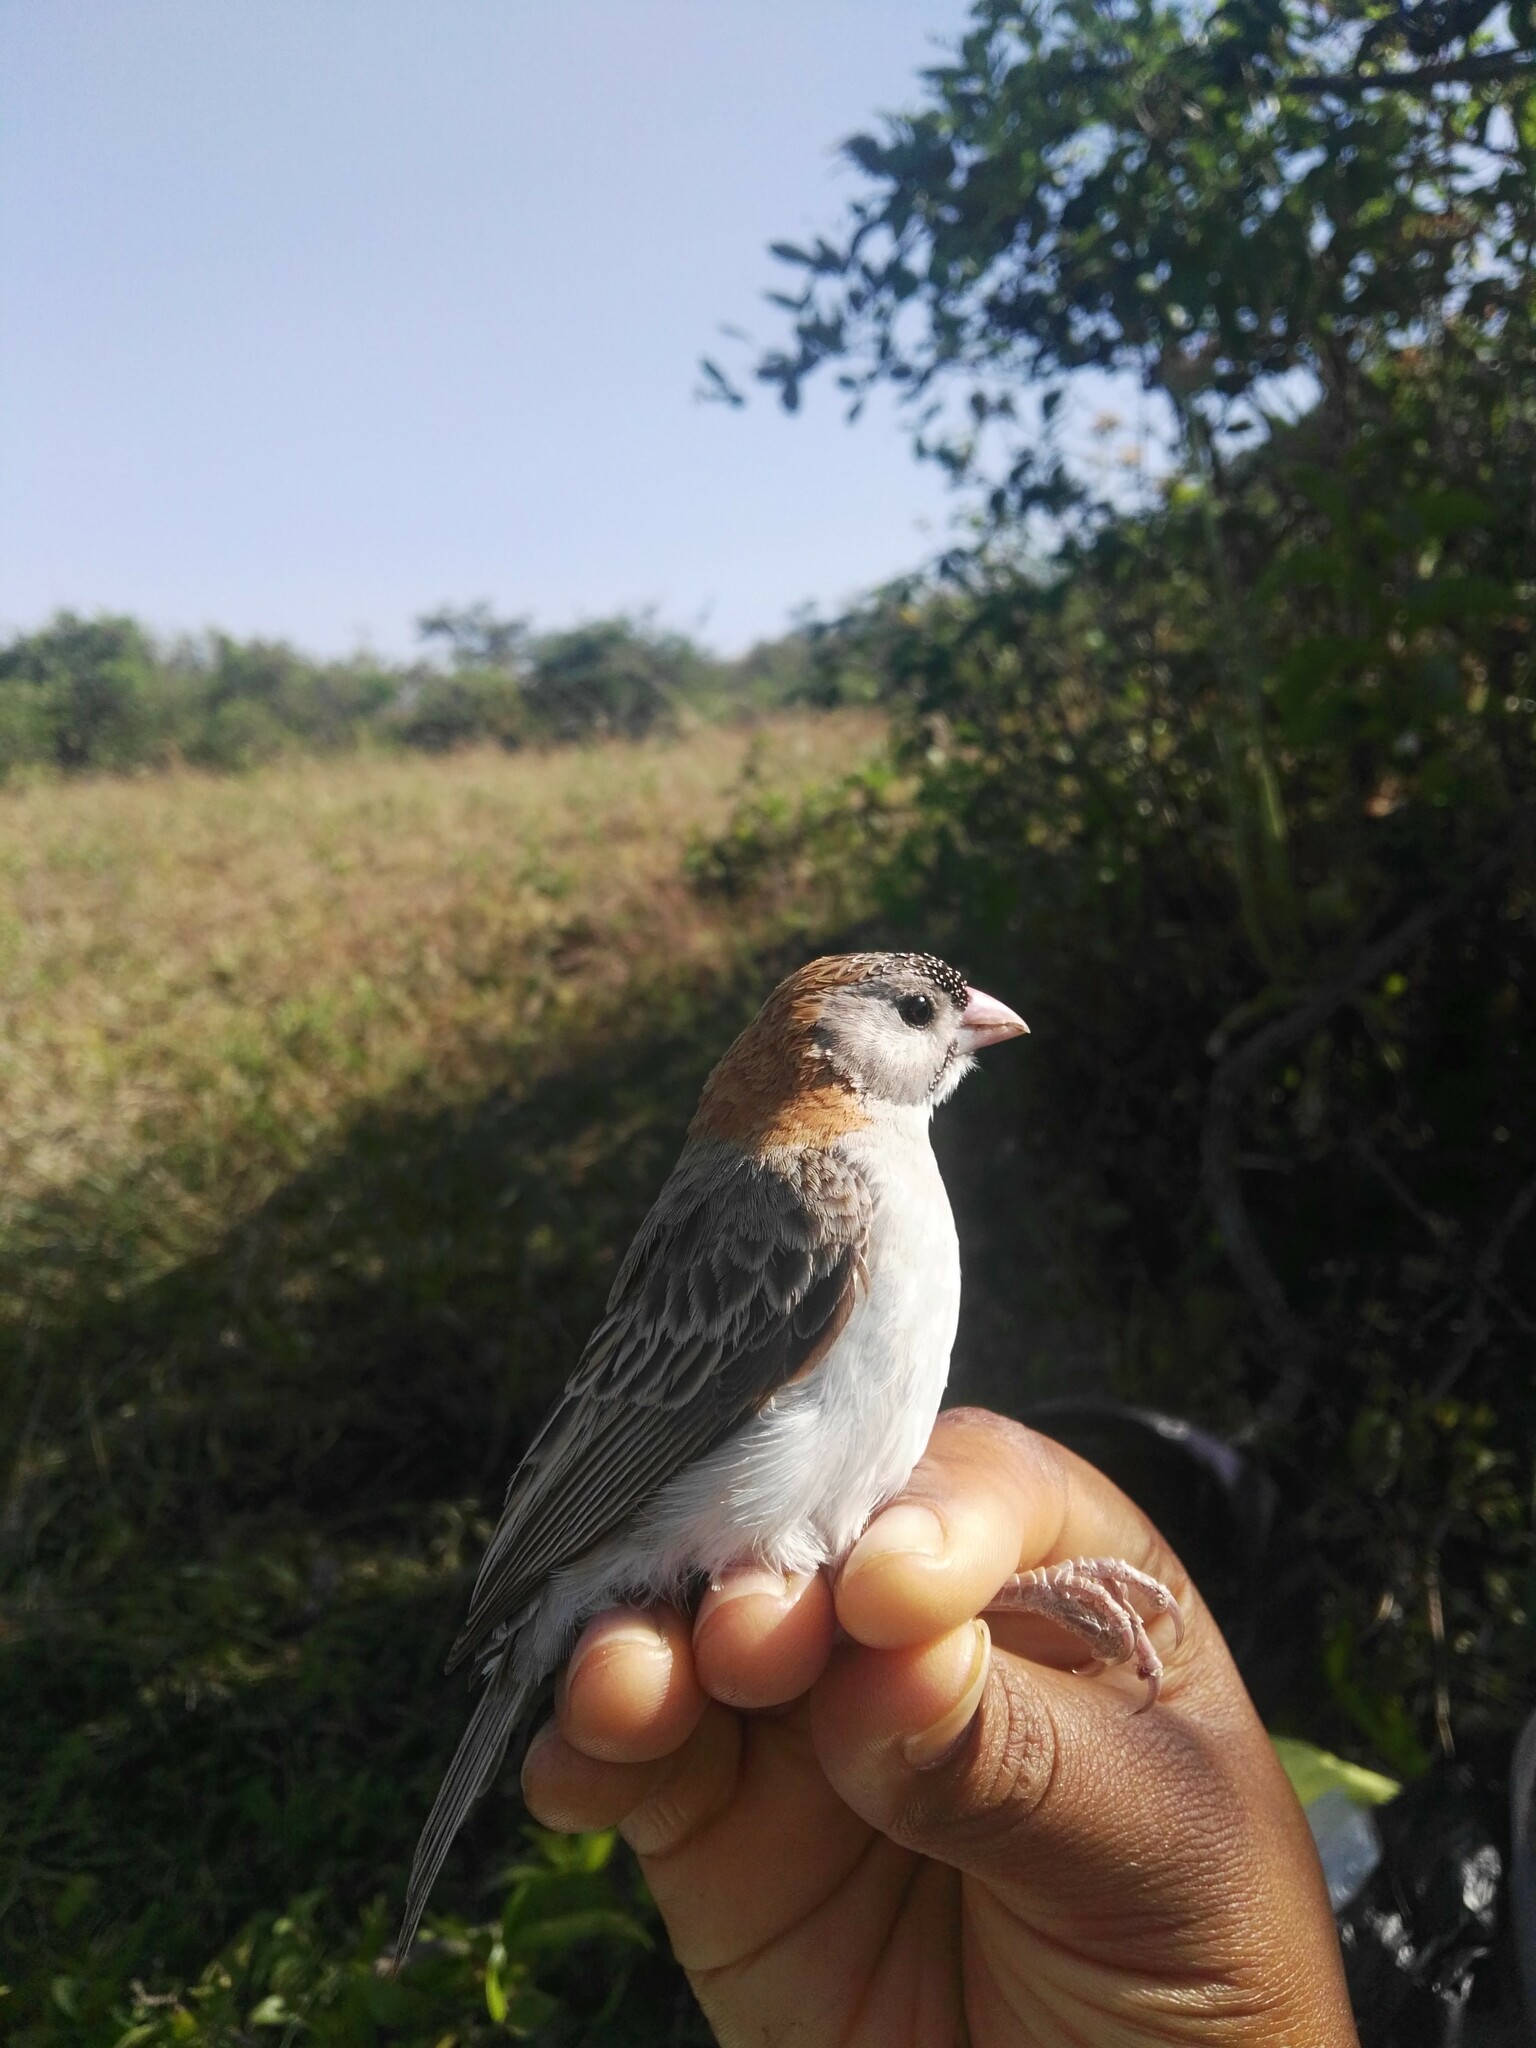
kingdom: Animalia
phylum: Chordata
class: Aves
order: Passeriformes
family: Ploceidae
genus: Sporopipes
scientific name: Sporopipes frontalis
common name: Speckle-fronted weaver
